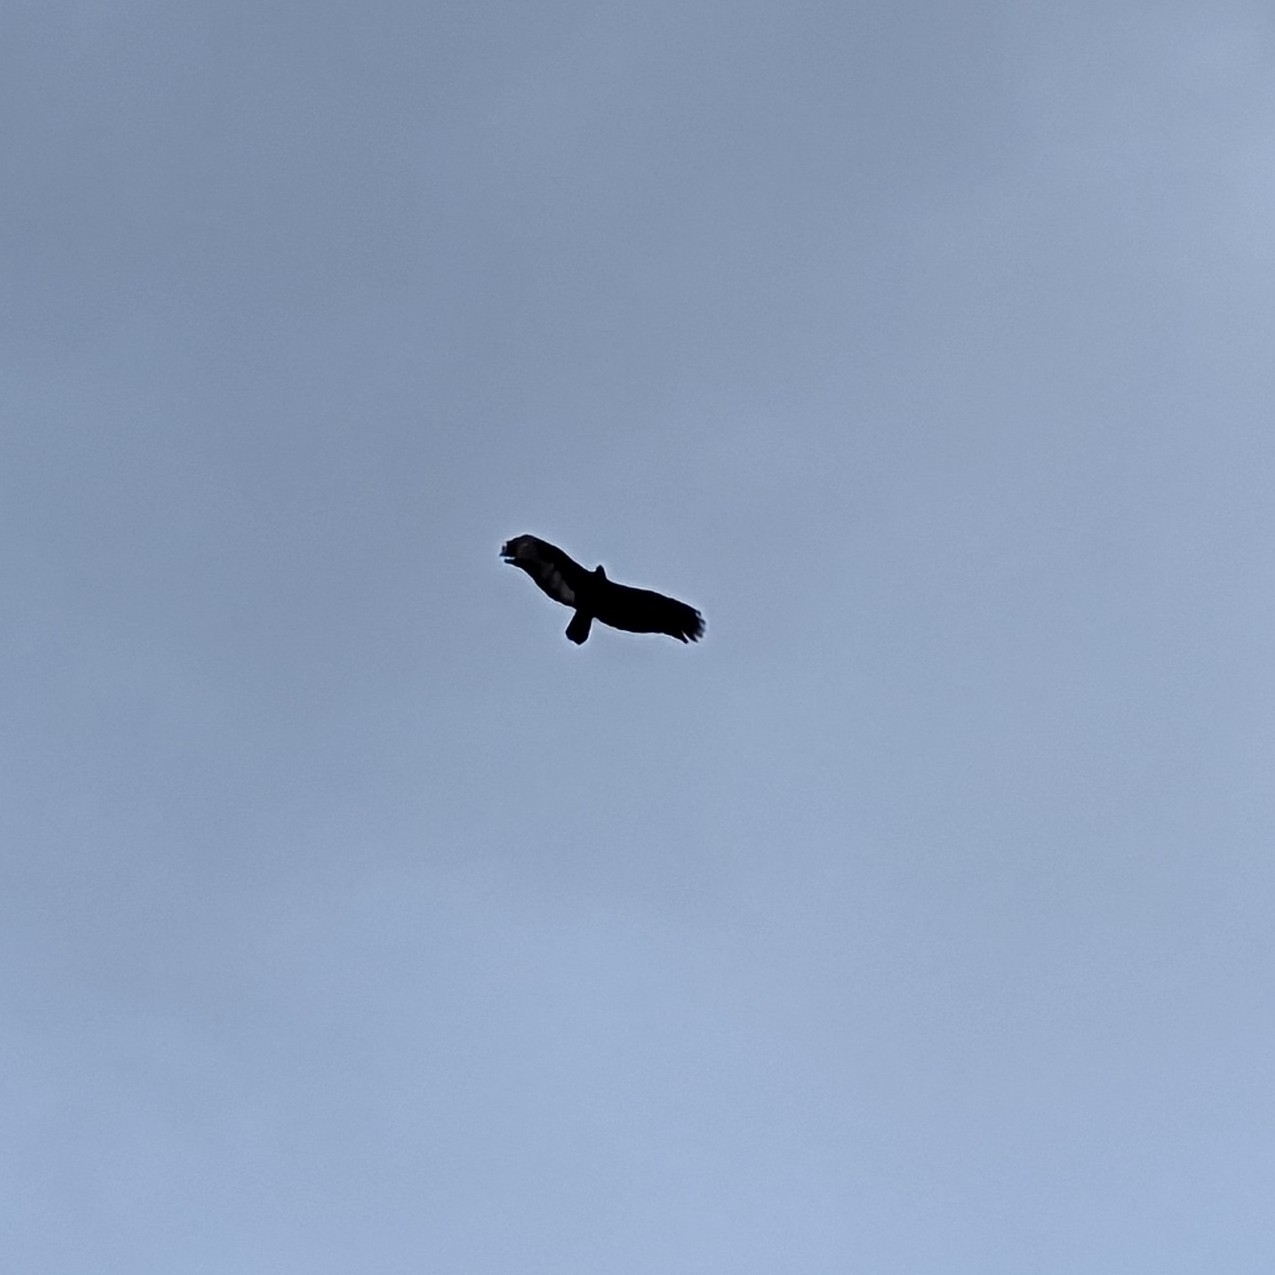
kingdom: Animalia
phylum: Chordata
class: Aves
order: Accipitriformes
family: Cathartidae
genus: Cathartes
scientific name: Cathartes aura
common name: Turkey vulture
